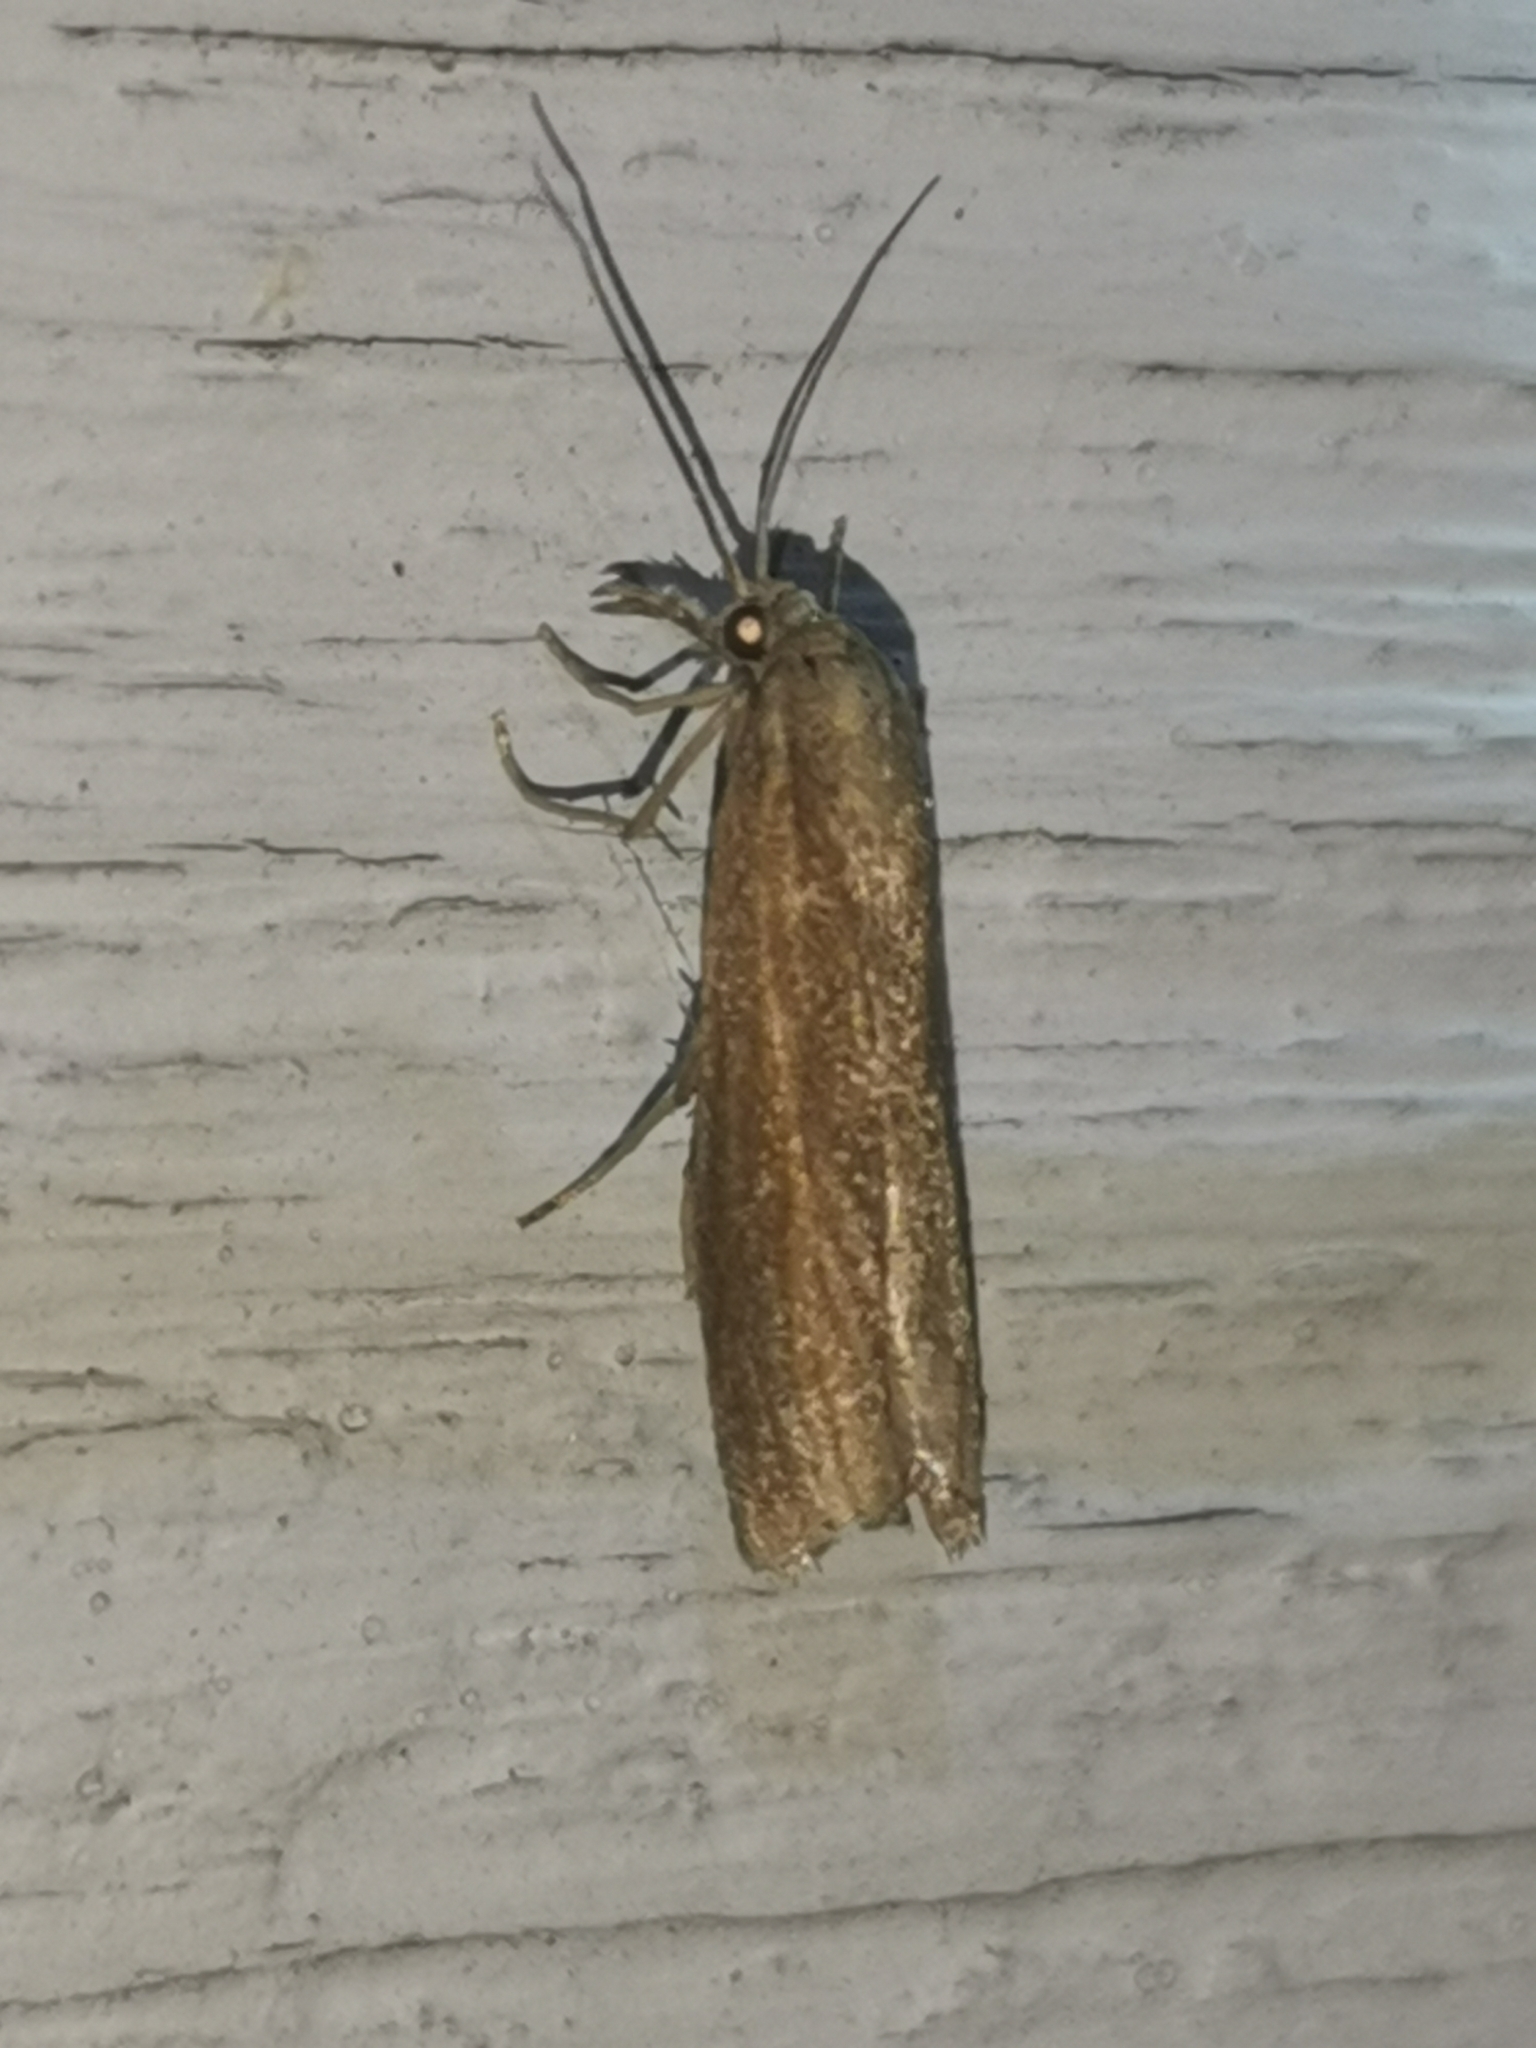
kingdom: Animalia
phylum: Arthropoda
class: Insecta
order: Lepidoptera
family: Crambidae
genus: Agriphila
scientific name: Agriphila tristellus
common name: Common grass-veneer
